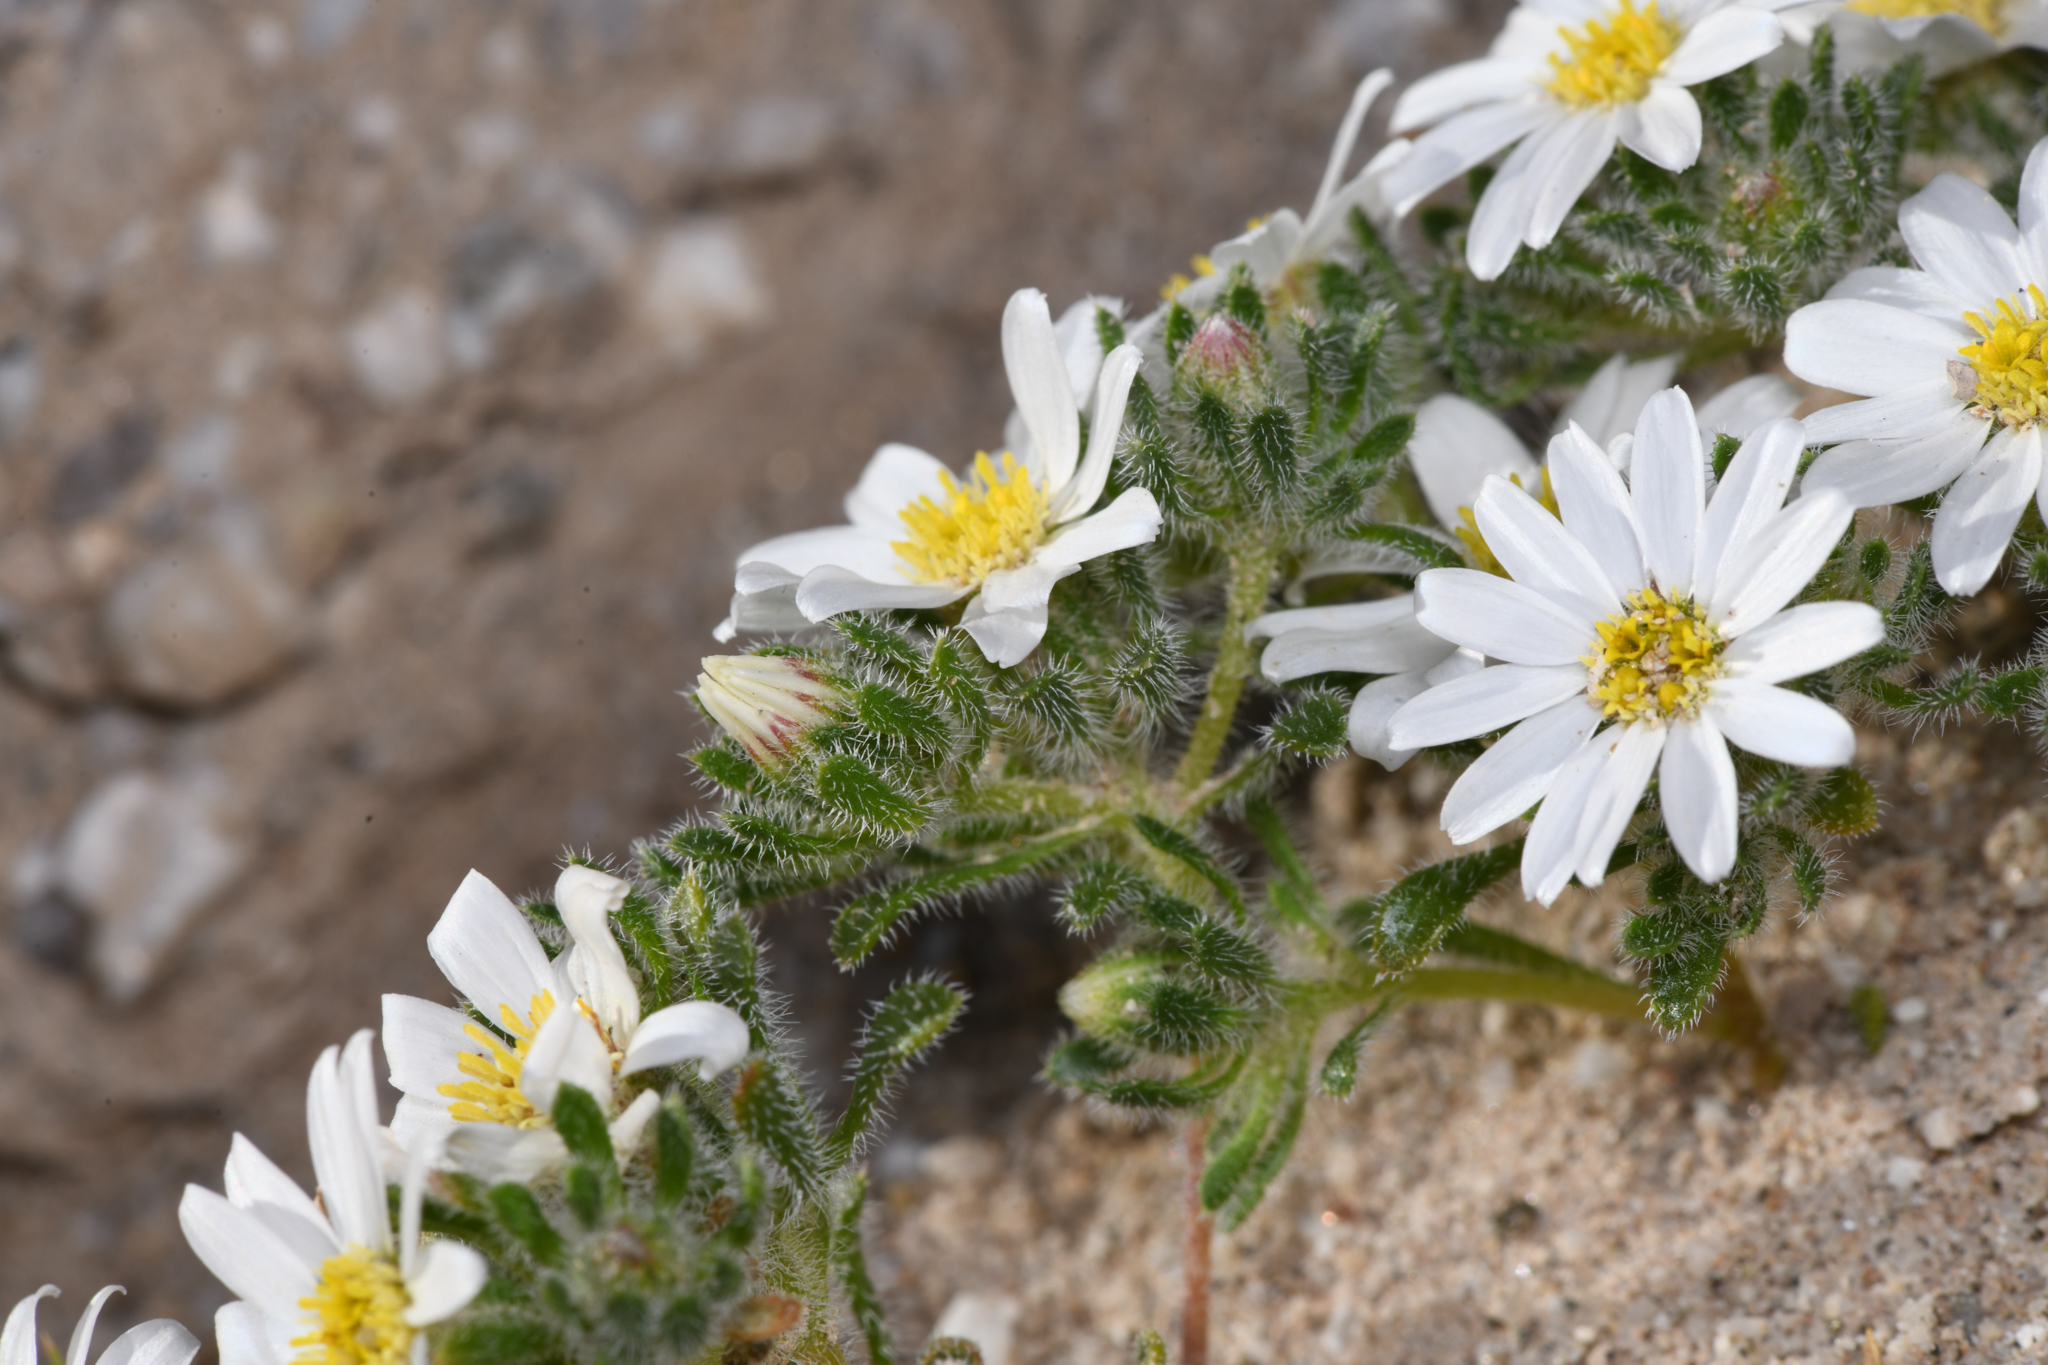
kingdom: Plantae
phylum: Tracheophyta
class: Magnoliopsida
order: Asterales
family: Asteraceae
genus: Monoptilon
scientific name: Monoptilon bellioides
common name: Bristly desertstar
